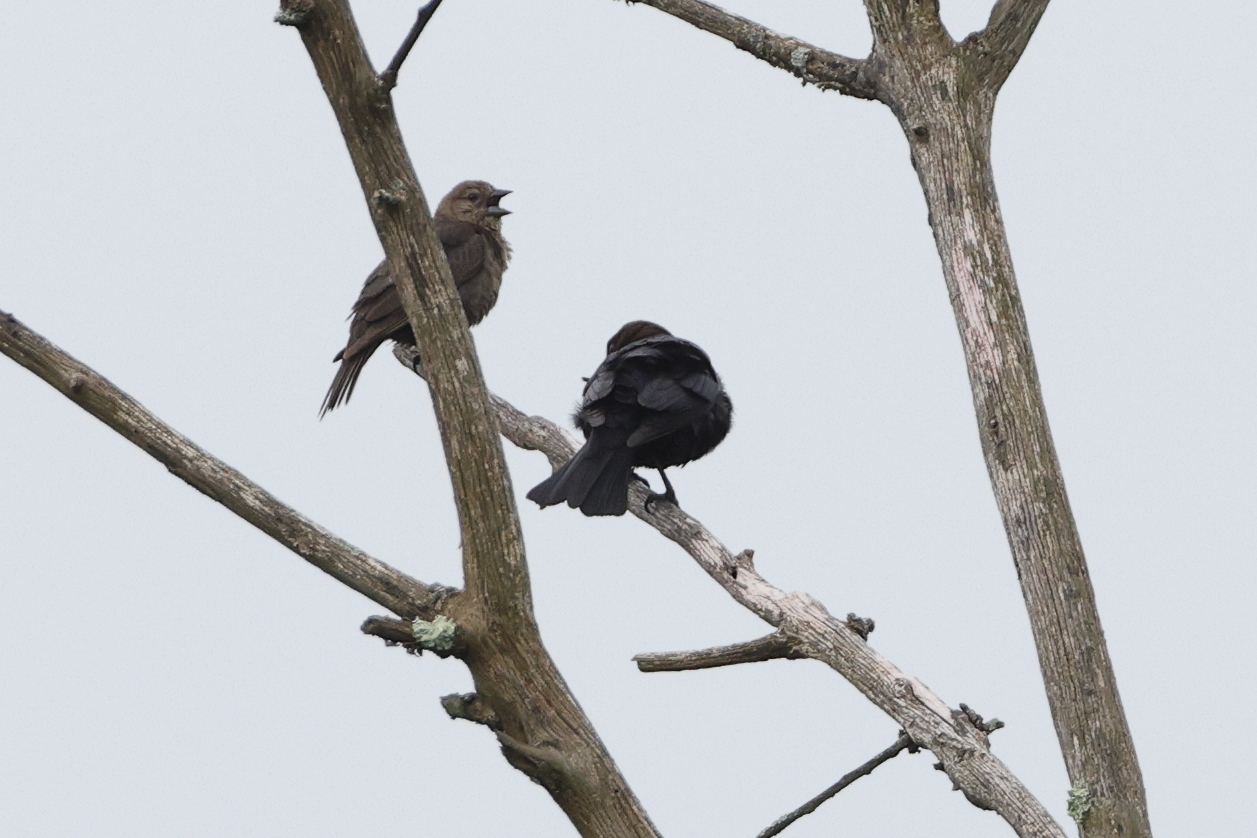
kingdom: Animalia
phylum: Chordata
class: Aves
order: Passeriformes
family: Icteridae
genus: Molothrus
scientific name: Molothrus ater
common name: Brown-headed cowbird
